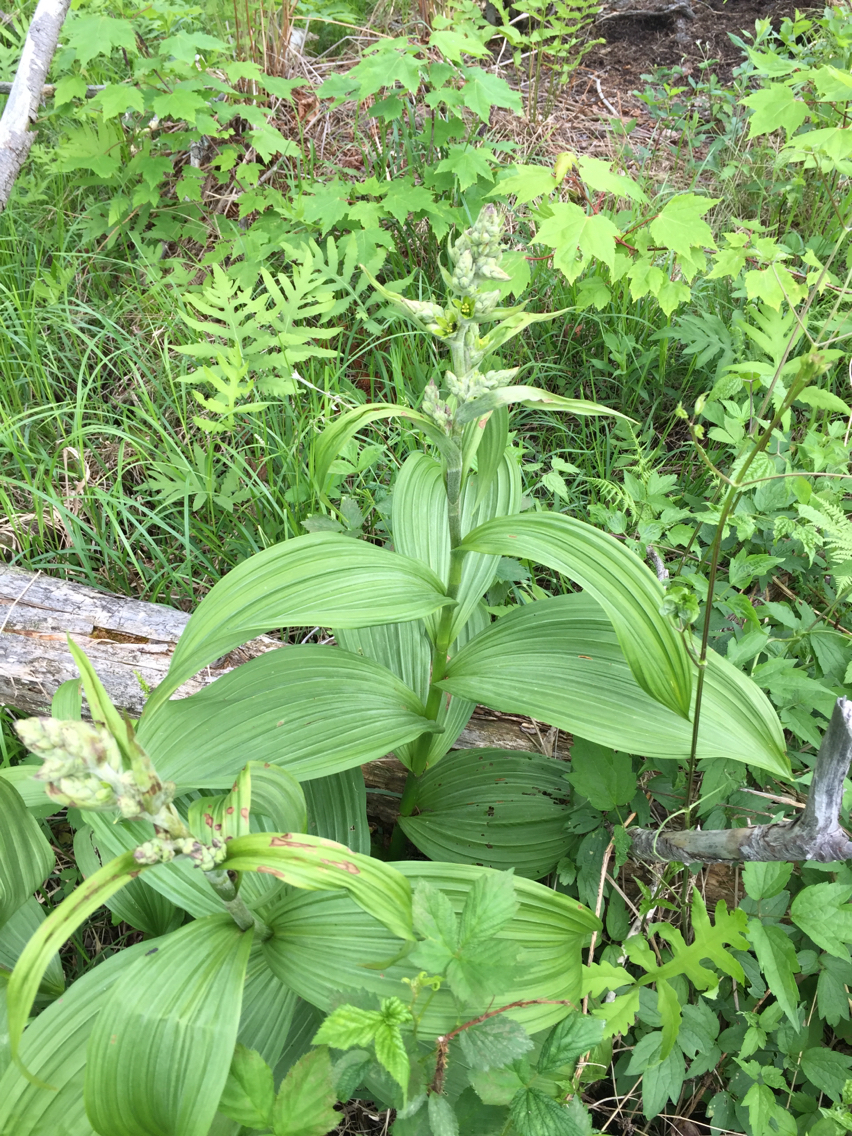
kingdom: Plantae
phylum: Tracheophyta
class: Liliopsida
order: Liliales
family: Melanthiaceae
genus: Veratrum
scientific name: Veratrum viride
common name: American false hellebore
